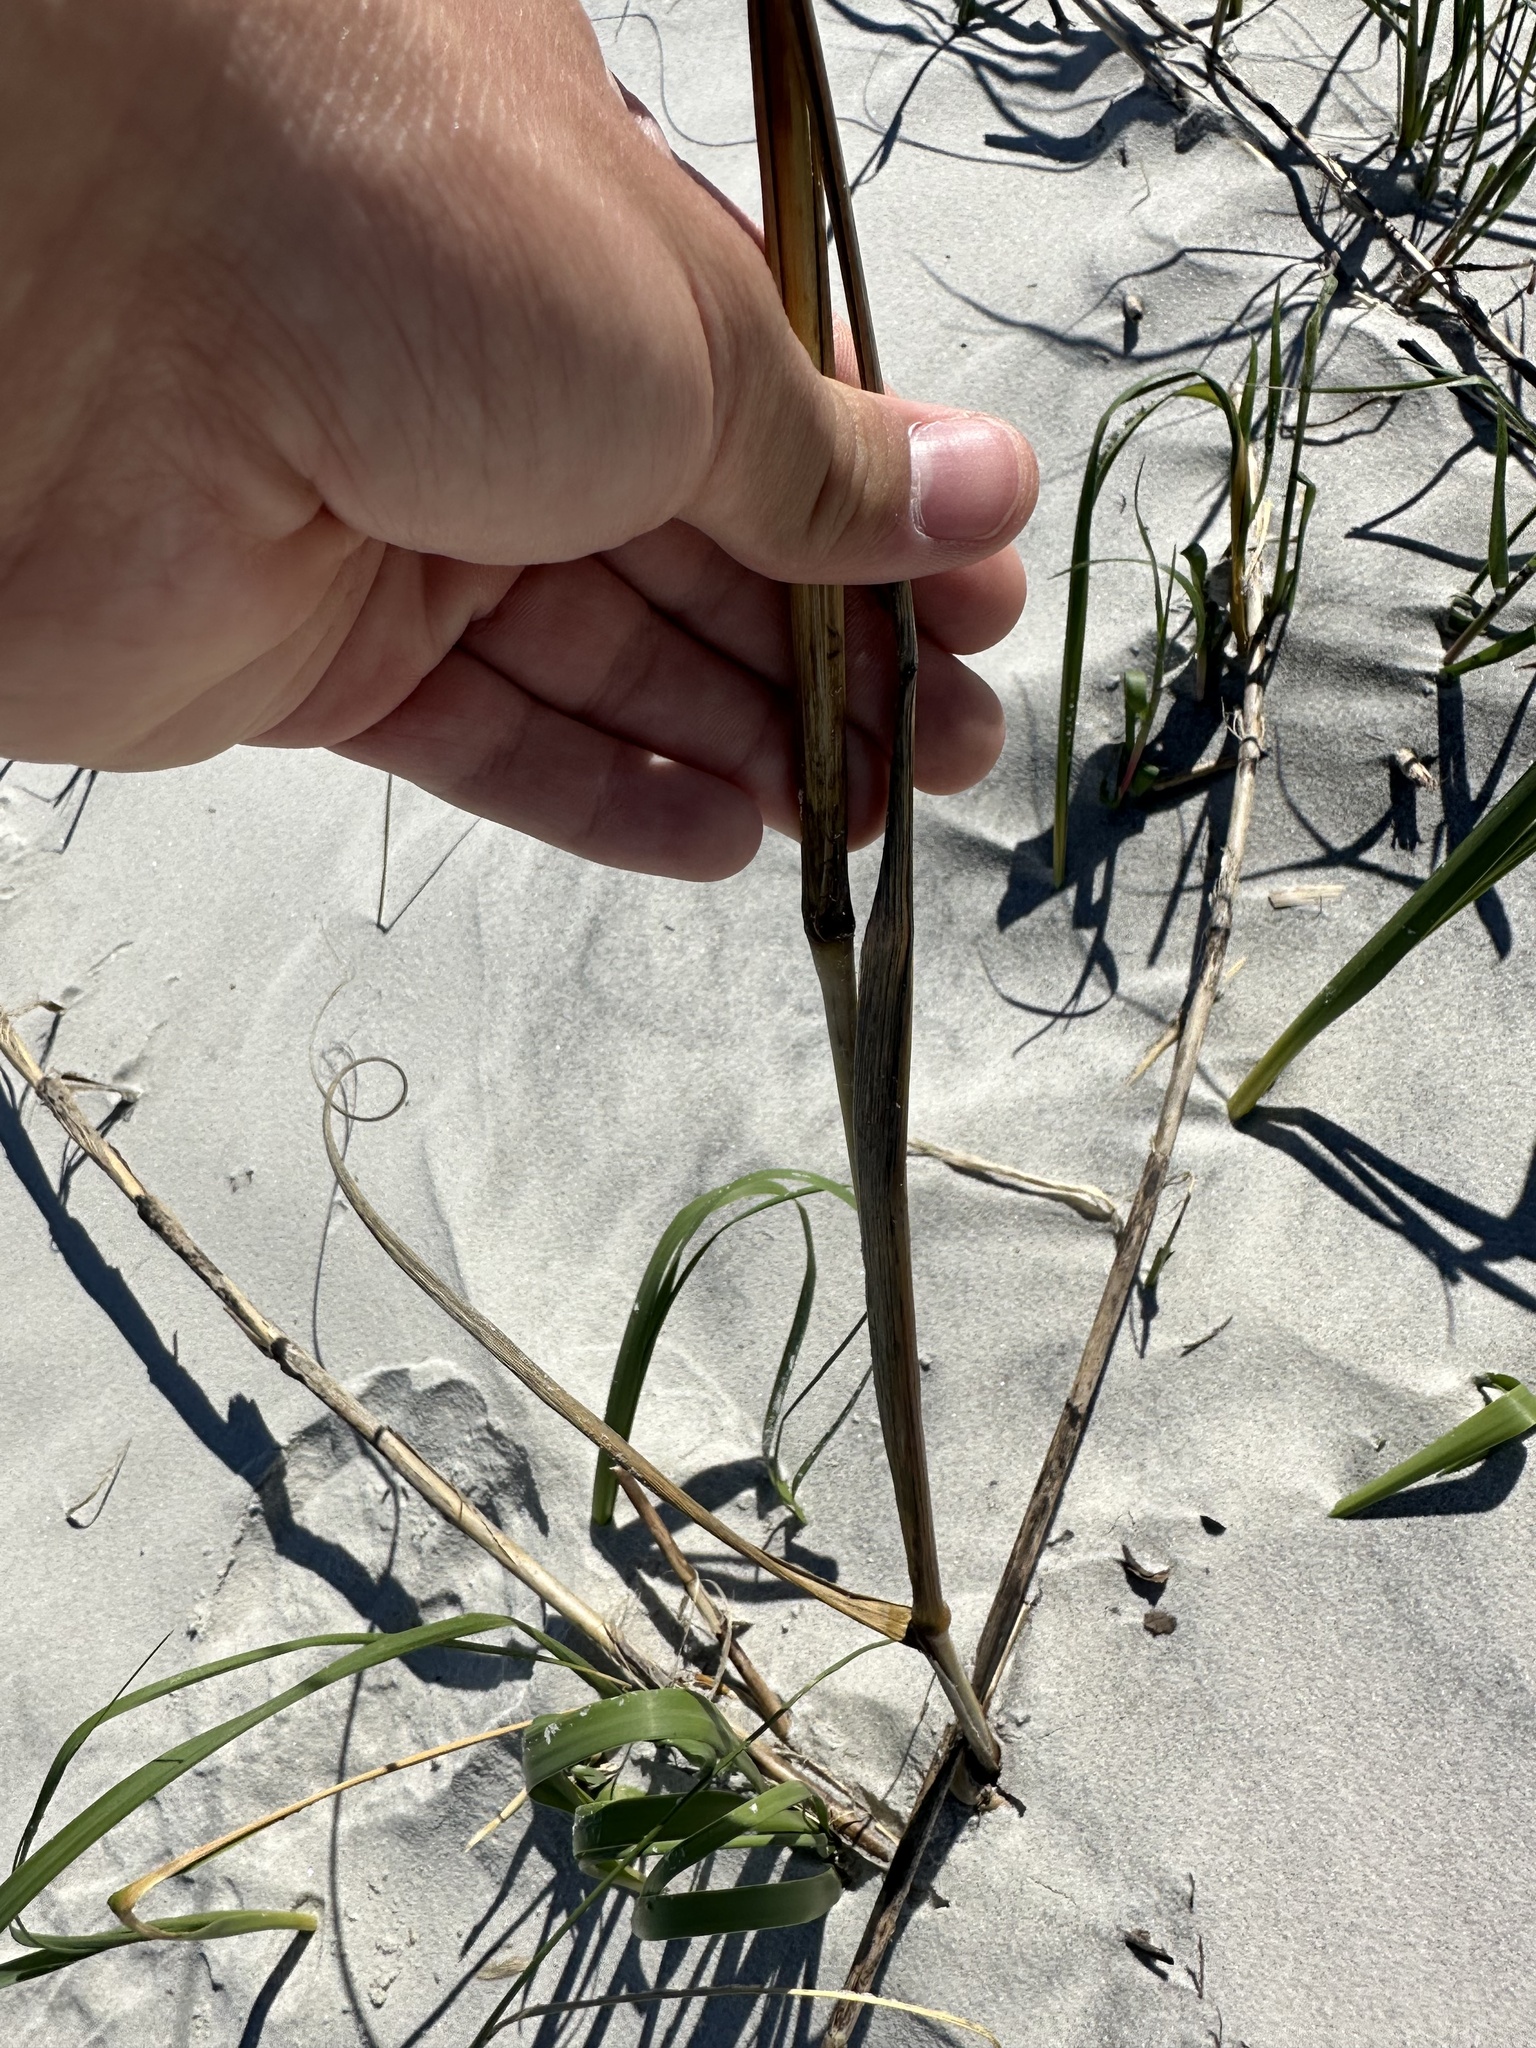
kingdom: Plantae
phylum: Tracheophyta
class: Liliopsida
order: Poales
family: Poaceae
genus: Uniola
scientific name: Uniola paniculata
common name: Seaside-oats
